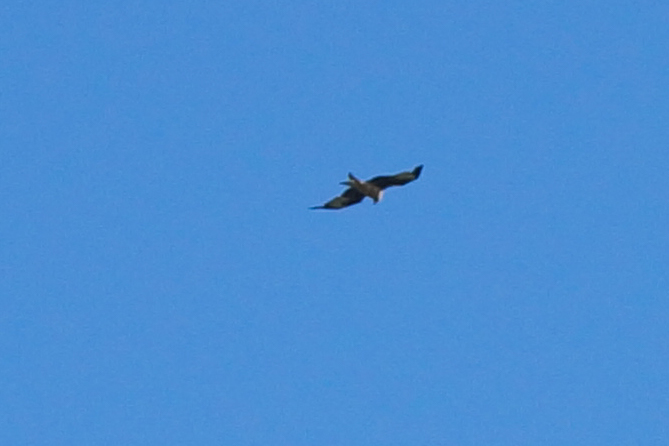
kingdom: Animalia
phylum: Chordata
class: Aves
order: Accipitriformes
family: Accipitridae
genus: Milvus
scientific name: Milvus milvus
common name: Red kite
